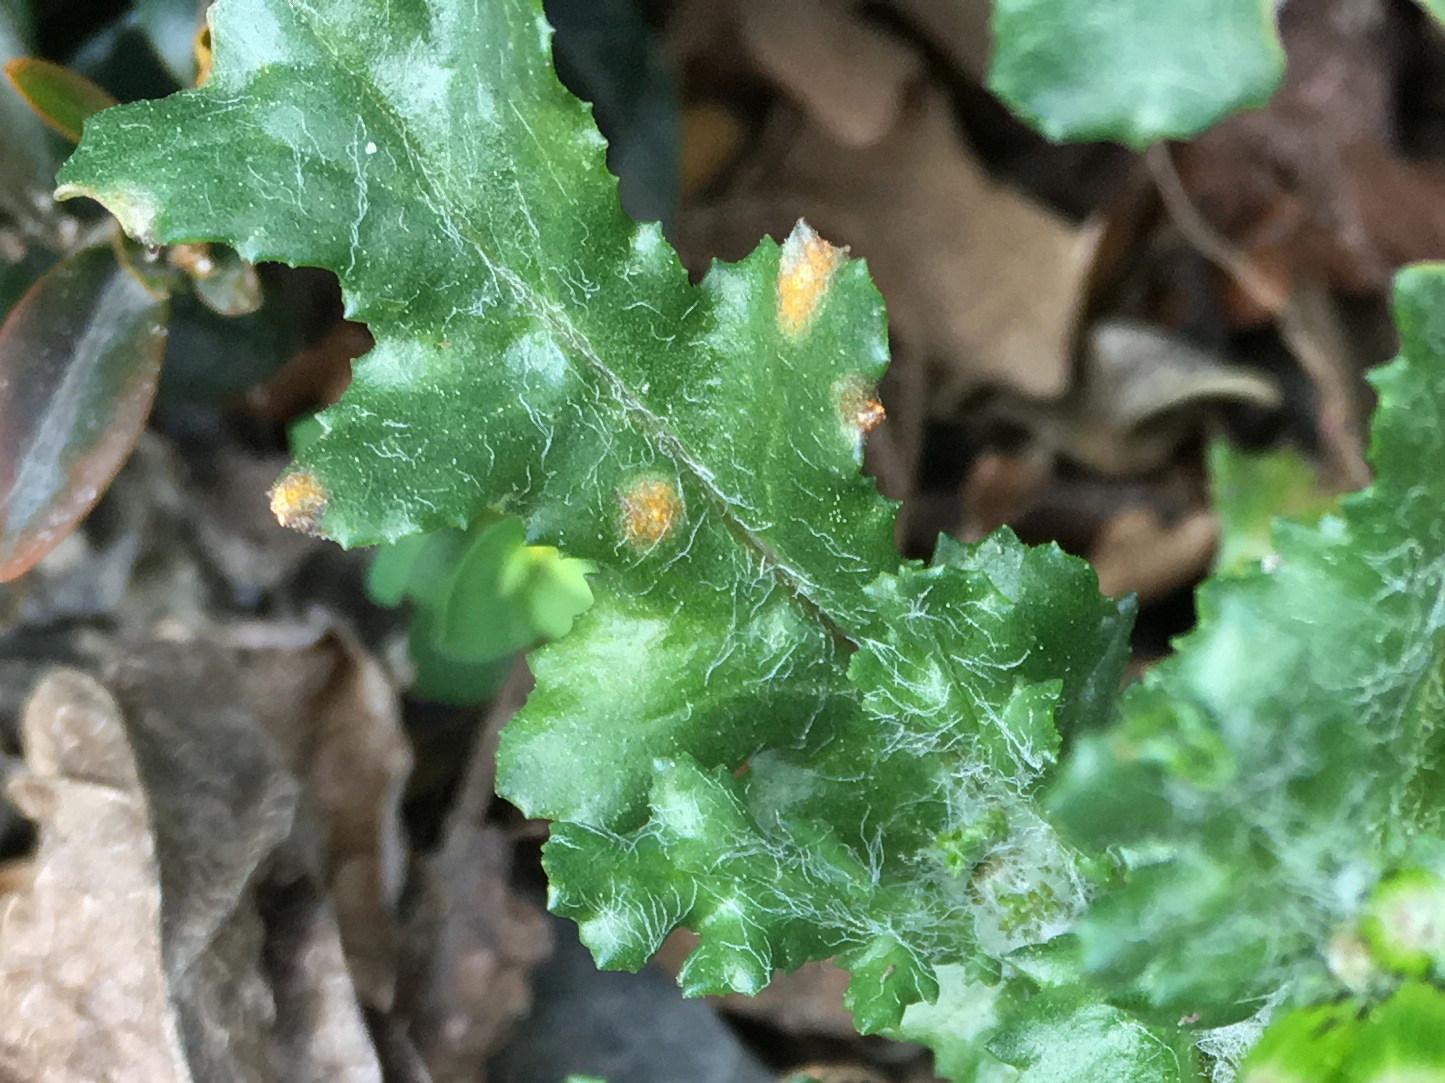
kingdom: Fungi
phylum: Basidiomycota
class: Pucciniomycetes
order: Pucciniales
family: Pucciniaceae
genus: Puccinia
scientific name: Puccinia lagenophorae
